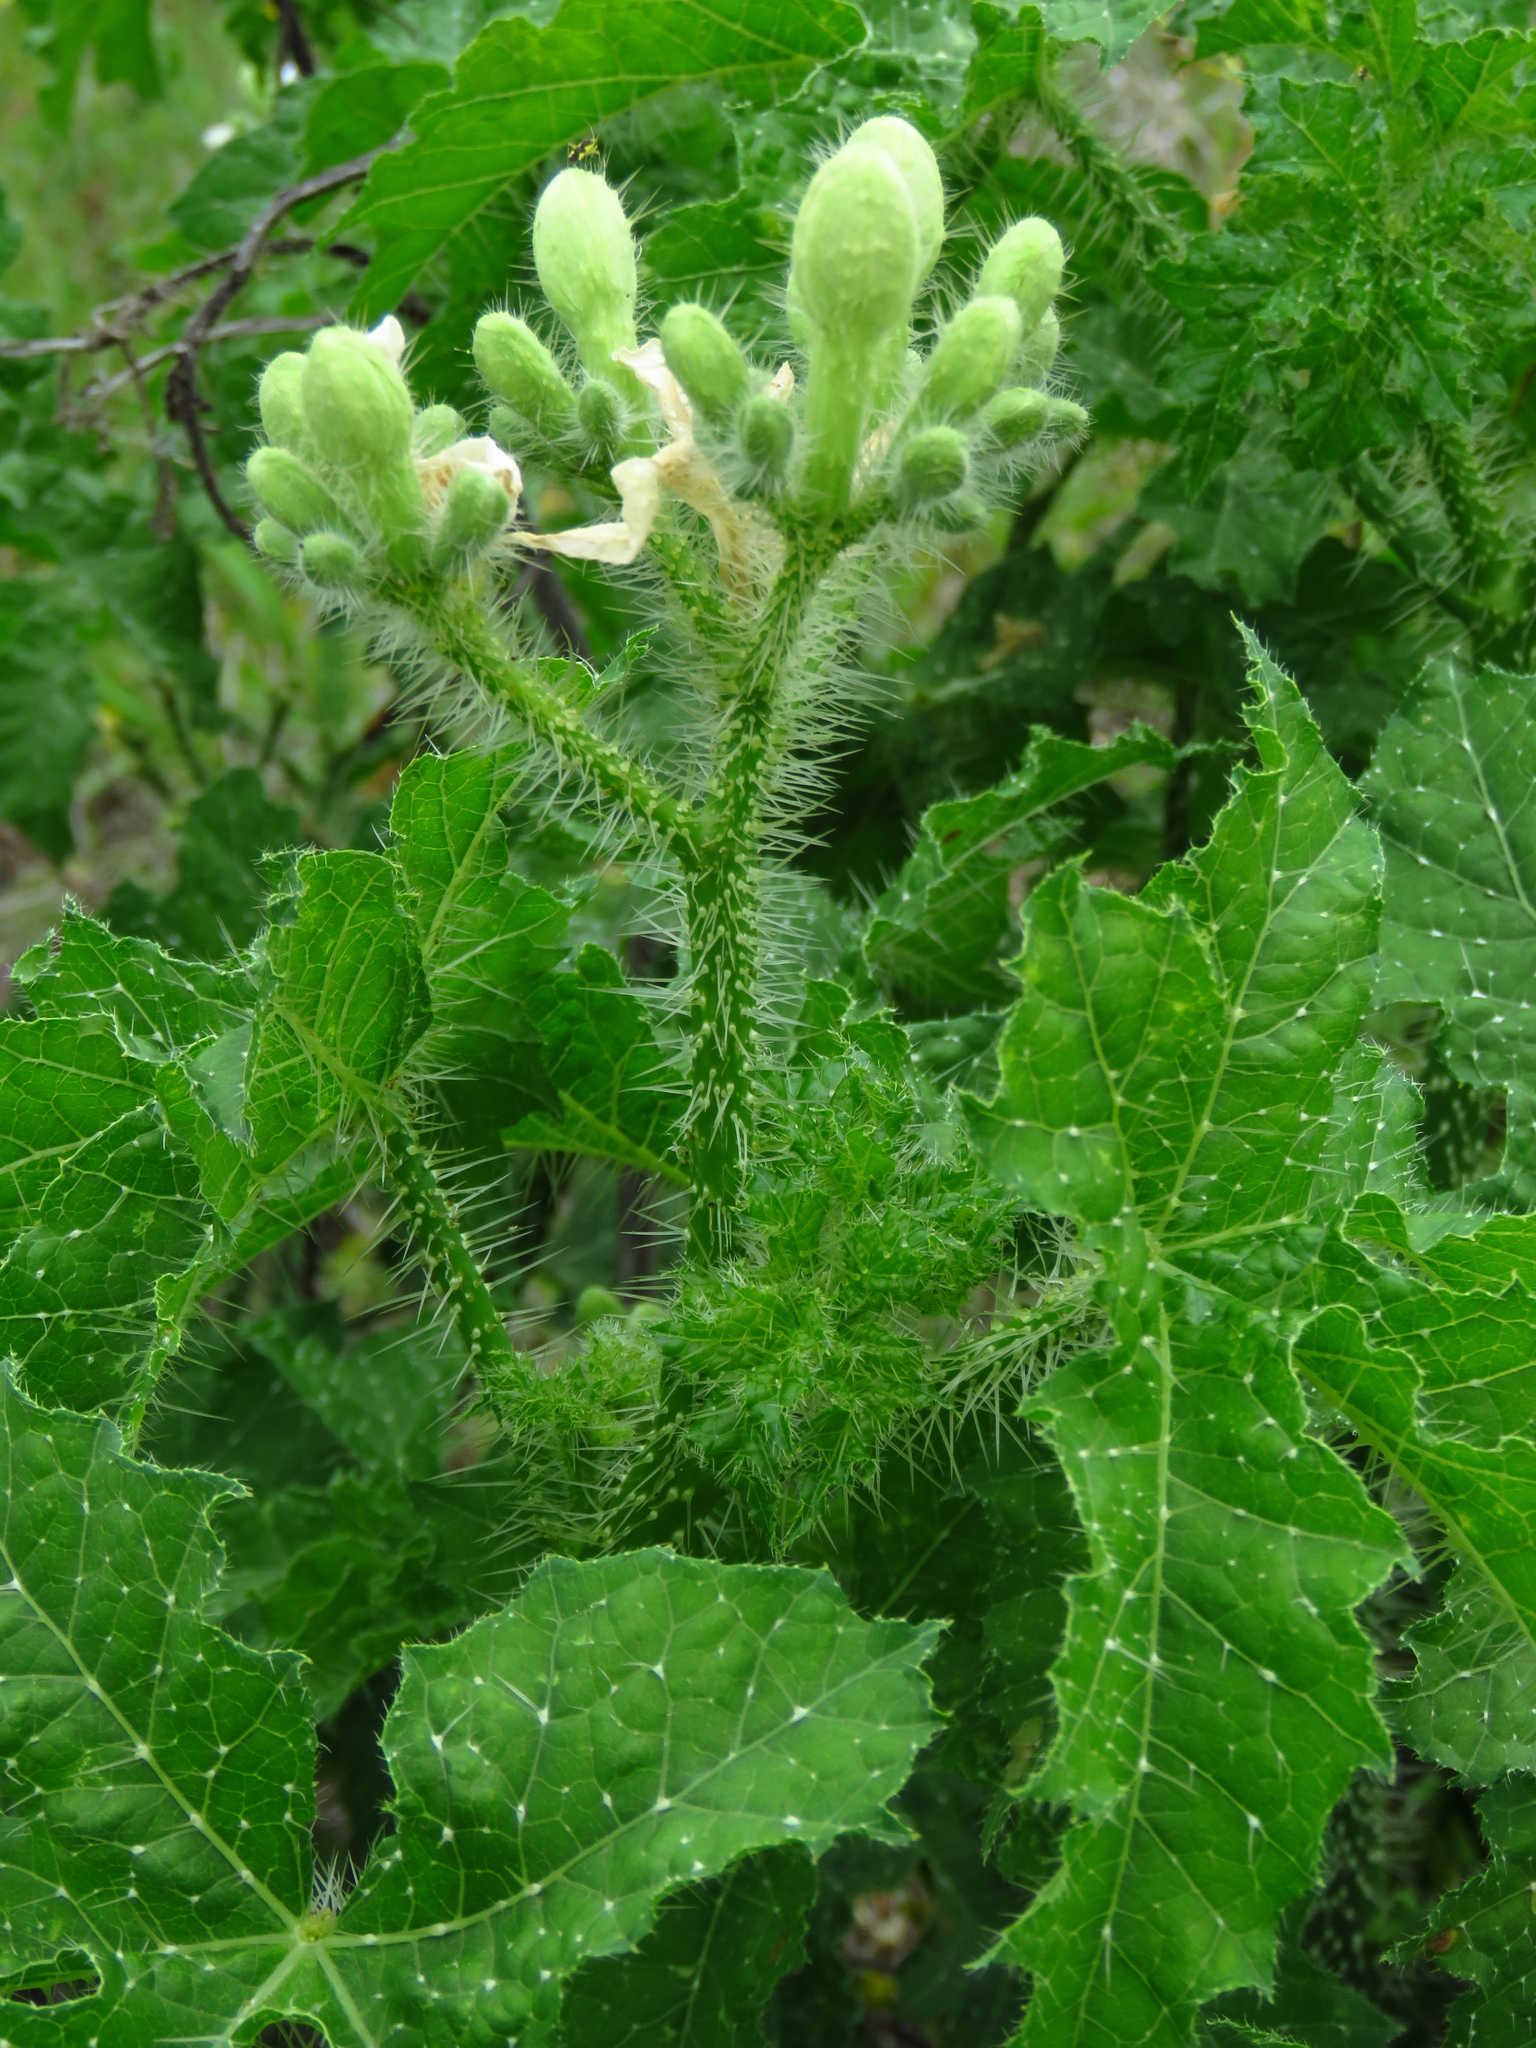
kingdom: Plantae
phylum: Tracheophyta
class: Magnoliopsida
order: Malpighiales
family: Euphorbiaceae
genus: Cnidoscolus
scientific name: Cnidoscolus texanus
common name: Texas bull-nettle
